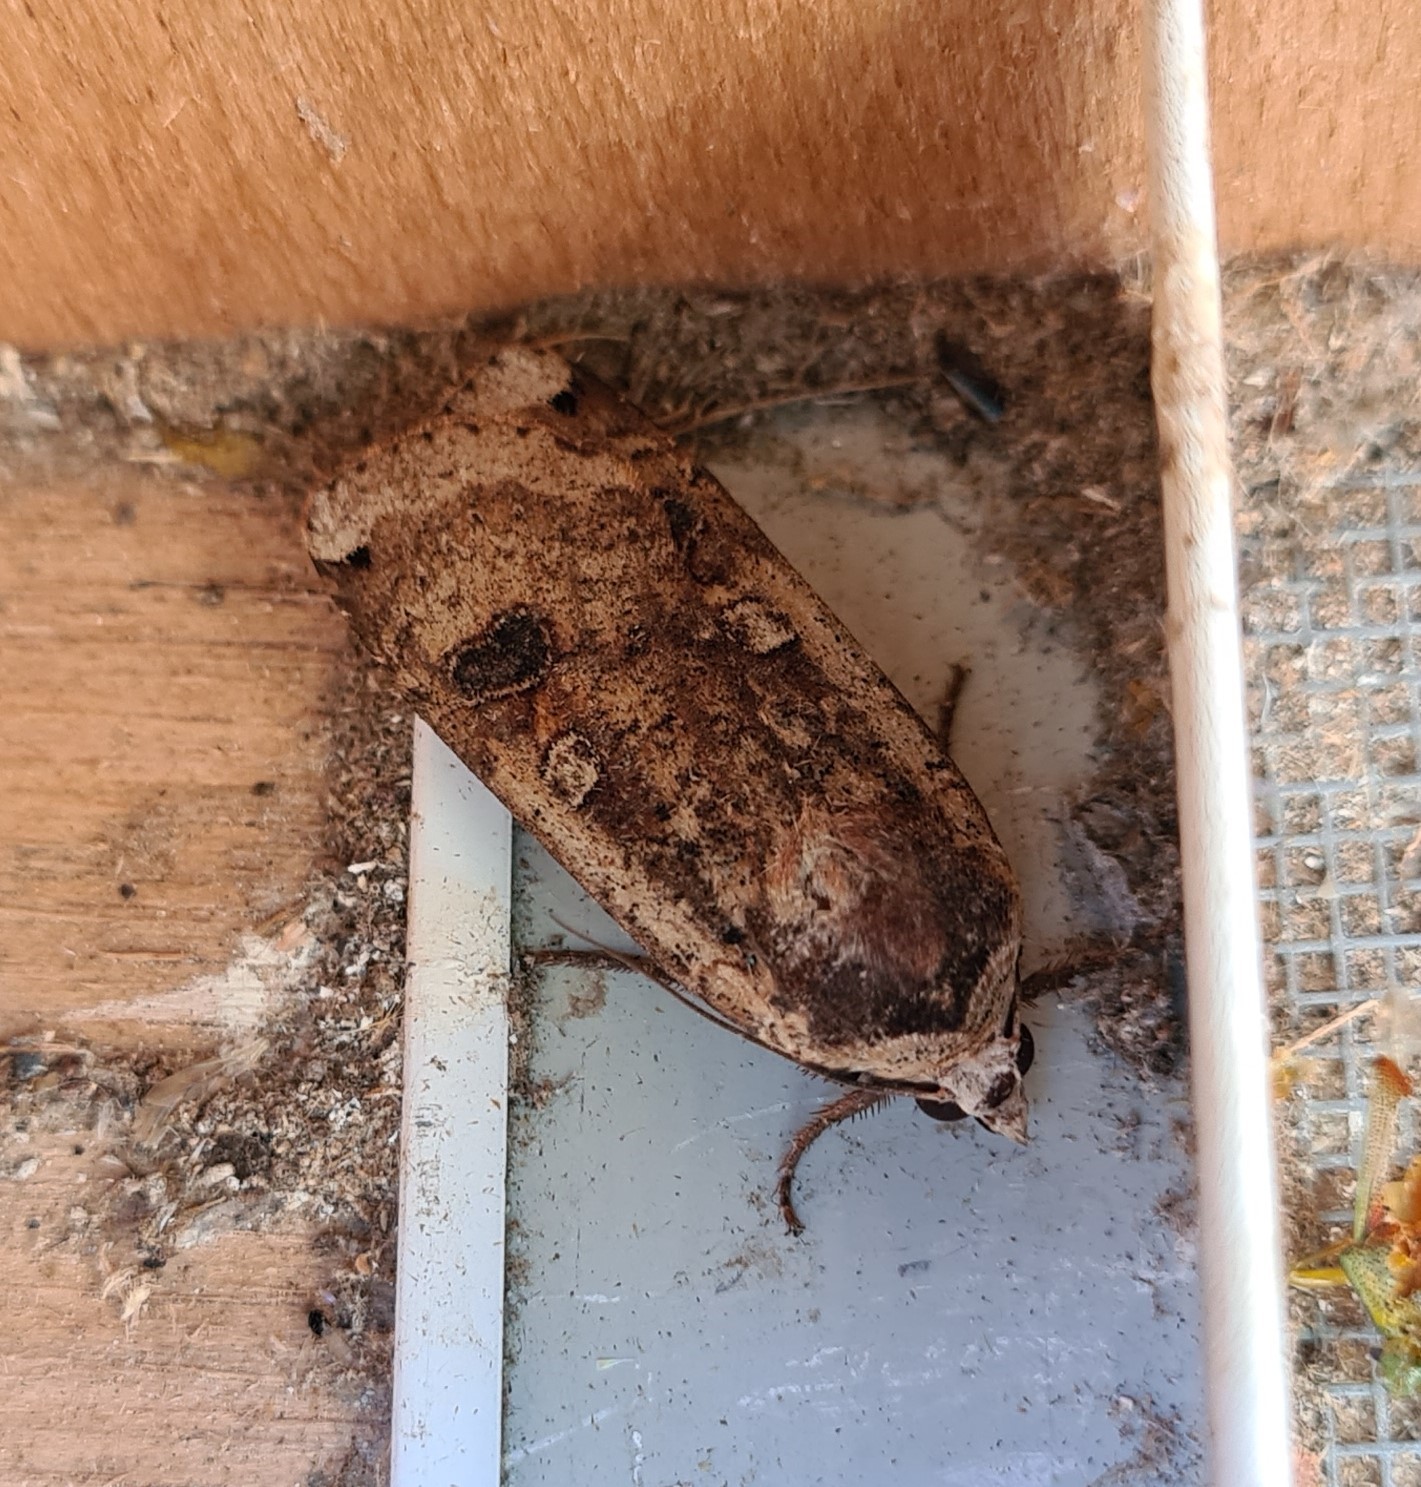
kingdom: Animalia
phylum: Arthropoda
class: Insecta
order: Lepidoptera
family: Noctuidae
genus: Noctua
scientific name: Noctua pronuba
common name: Large yellow underwing
